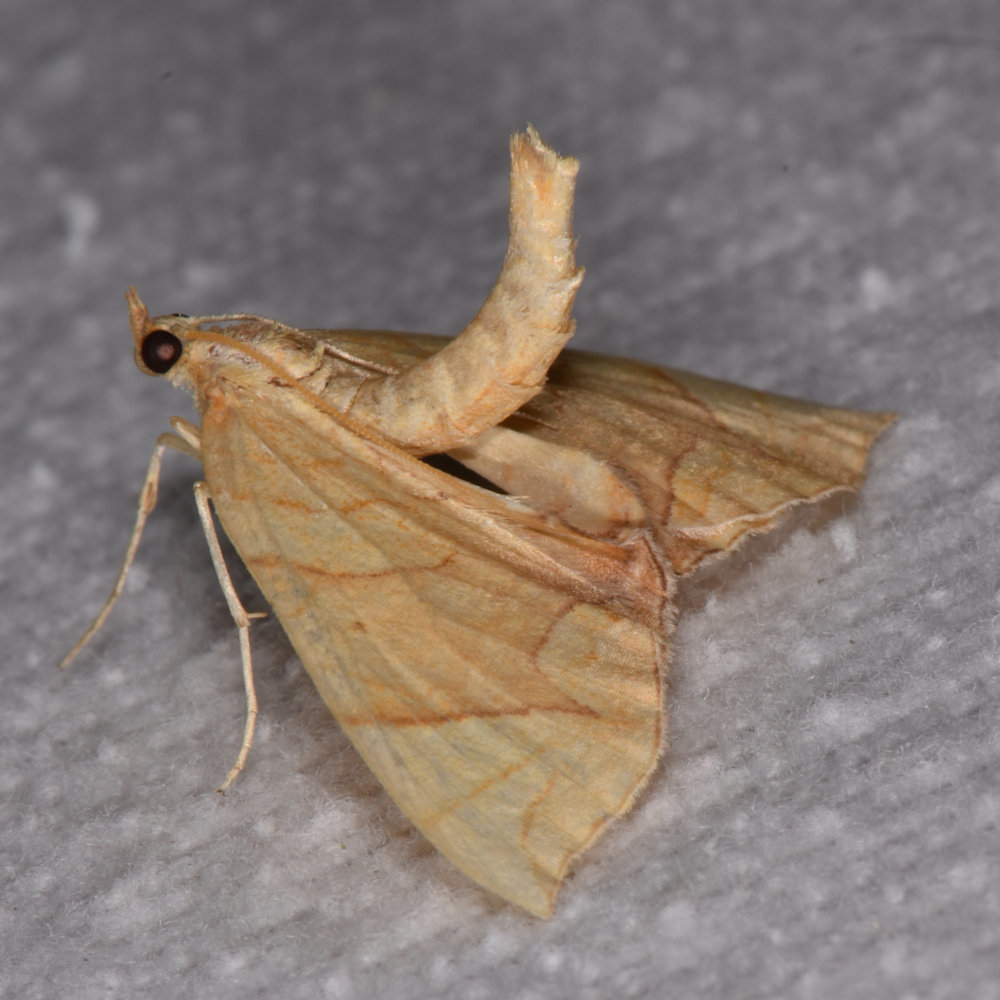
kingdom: Animalia
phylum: Arthropoda
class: Insecta
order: Lepidoptera
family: Geometridae
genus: Eulithis
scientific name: Eulithis
